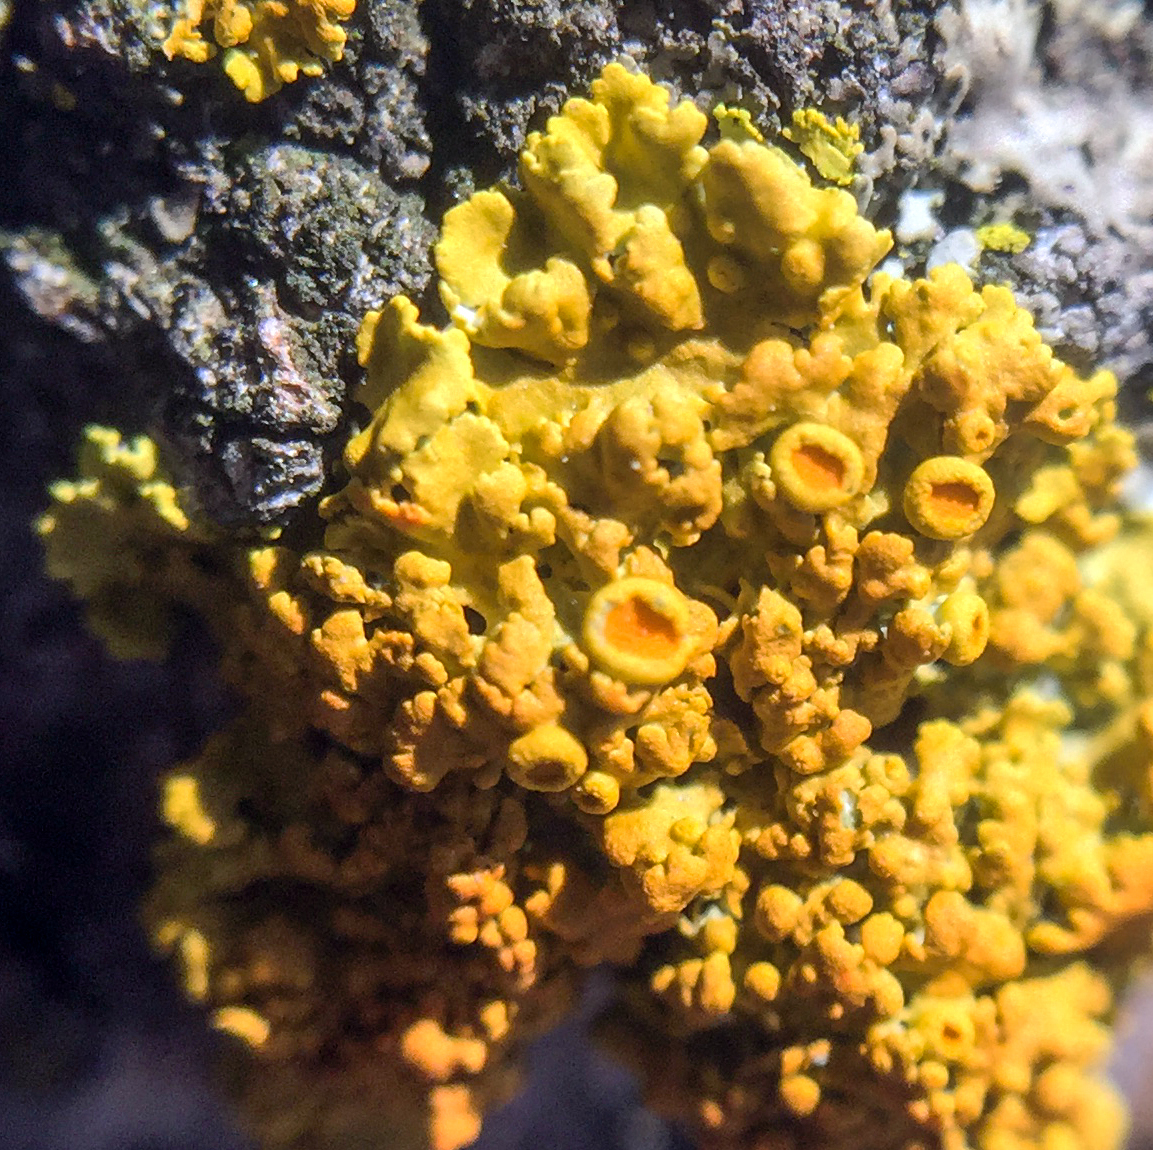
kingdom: Fungi
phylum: Ascomycota
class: Lecanoromycetes
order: Teloschistales
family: Teloschistaceae
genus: Gallowayella
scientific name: Gallowayella hasseana
